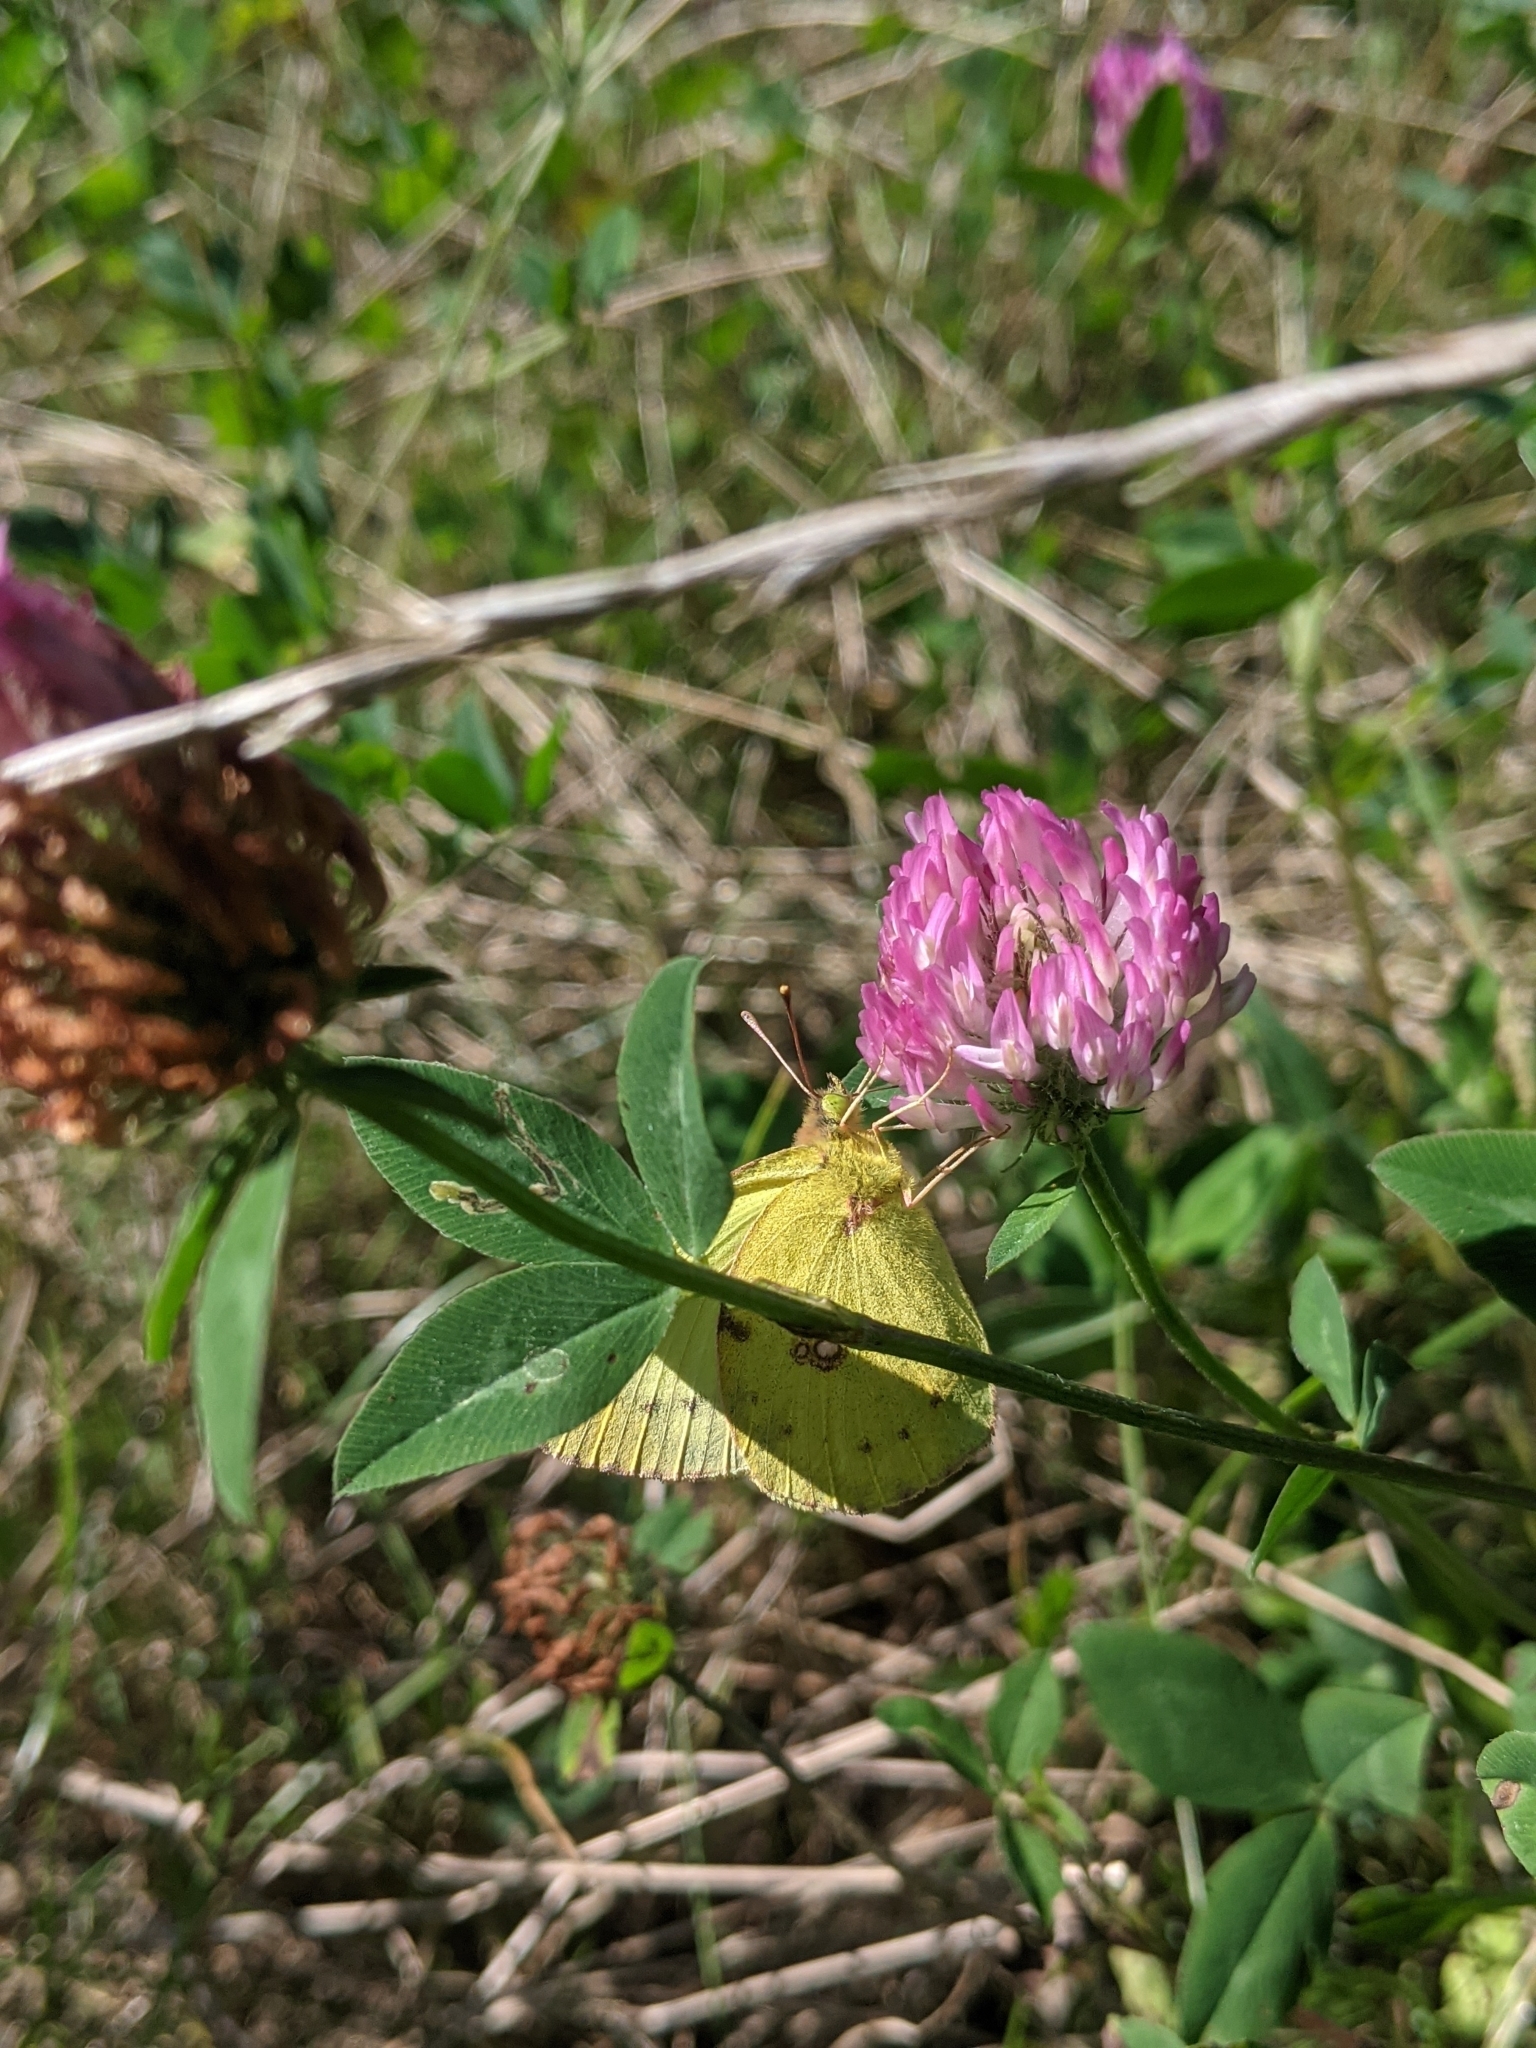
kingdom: Plantae
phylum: Tracheophyta
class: Magnoliopsida
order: Fabales
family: Fabaceae
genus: Trifolium
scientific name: Trifolium pratense
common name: Red clover
